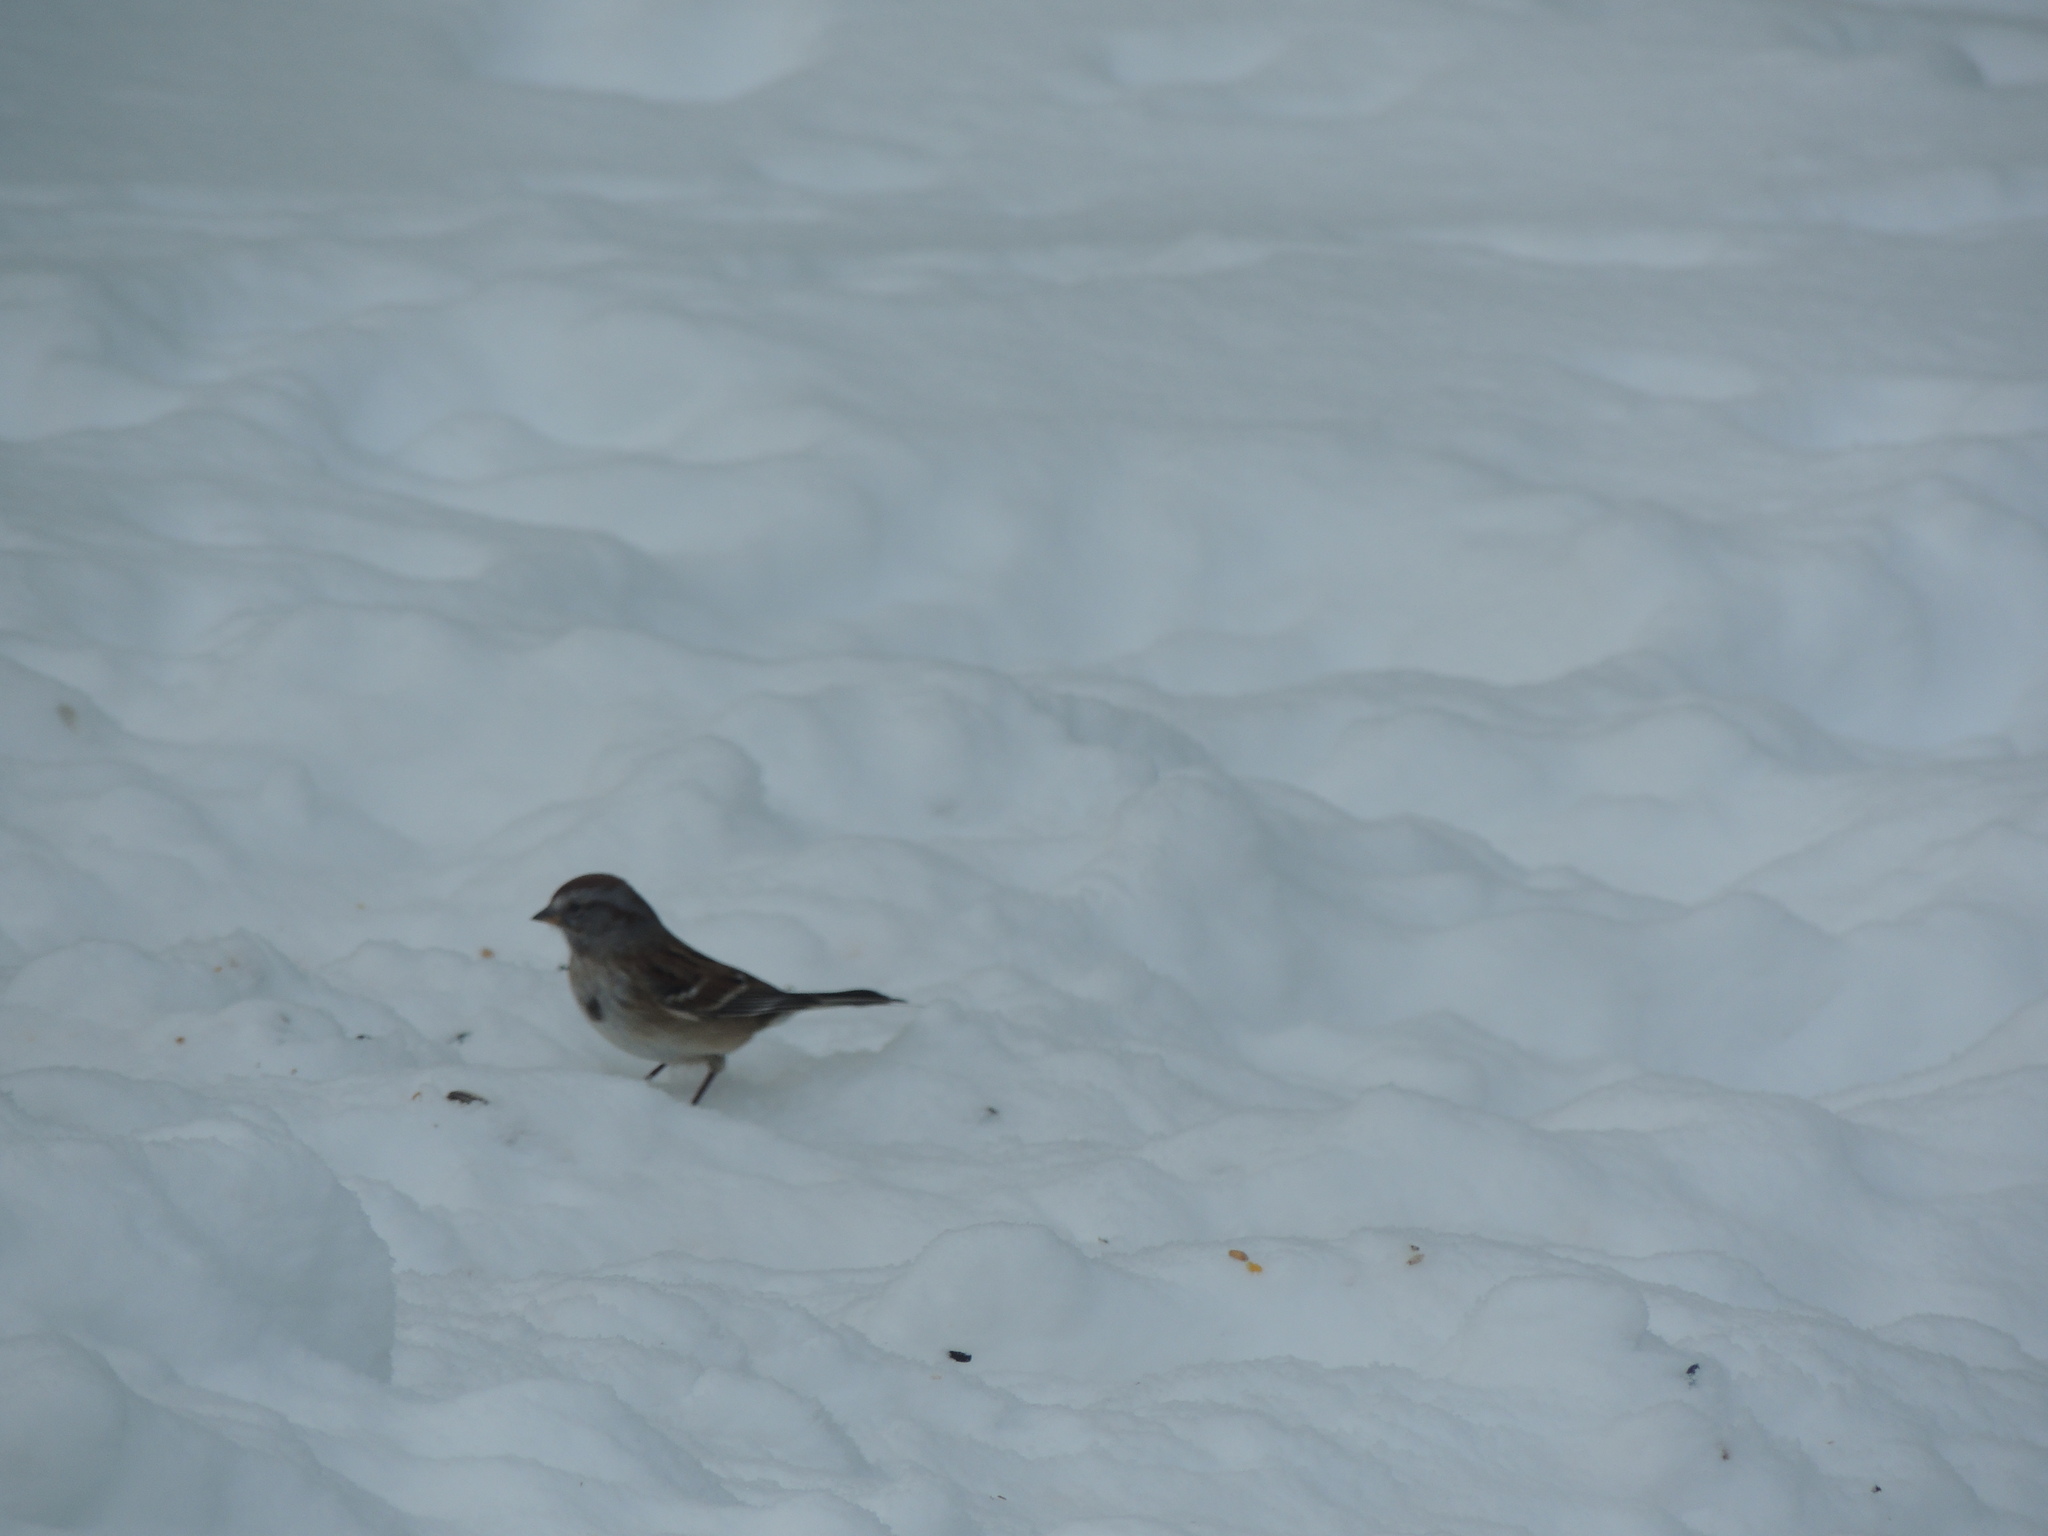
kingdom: Animalia
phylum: Chordata
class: Aves
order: Passeriformes
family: Passerellidae
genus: Spizelloides
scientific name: Spizelloides arborea
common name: American tree sparrow
